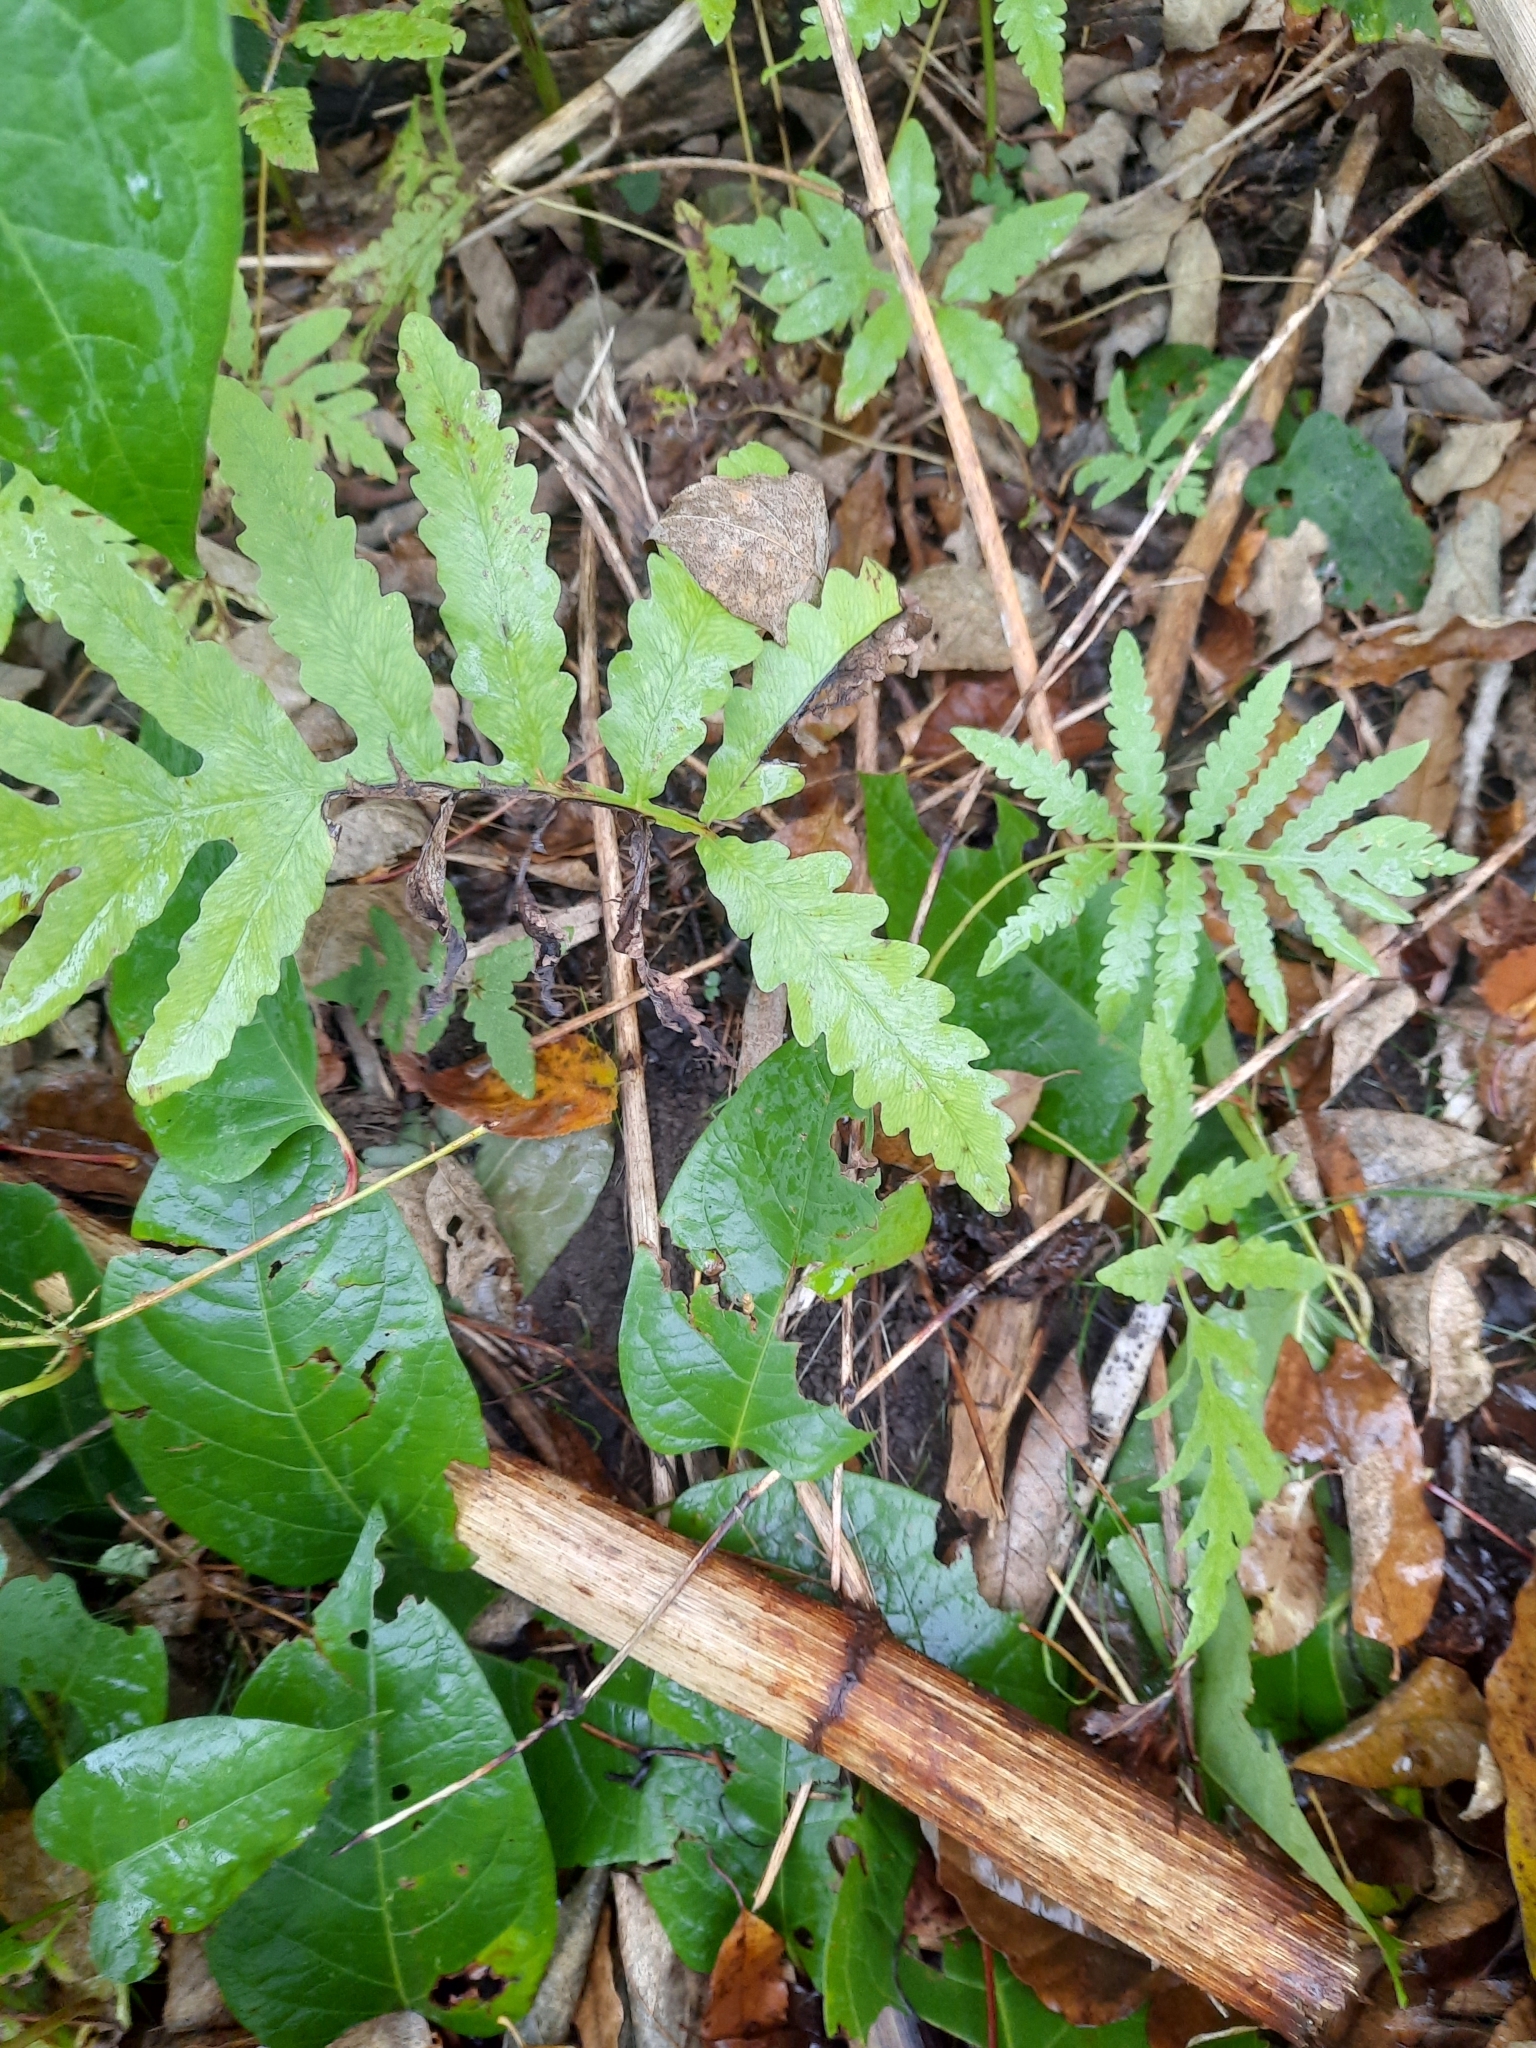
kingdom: Plantae
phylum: Tracheophyta
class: Polypodiopsida
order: Polypodiales
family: Onocleaceae
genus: Onoclea
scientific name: Onoclea sensibilis
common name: Sensitive fern
